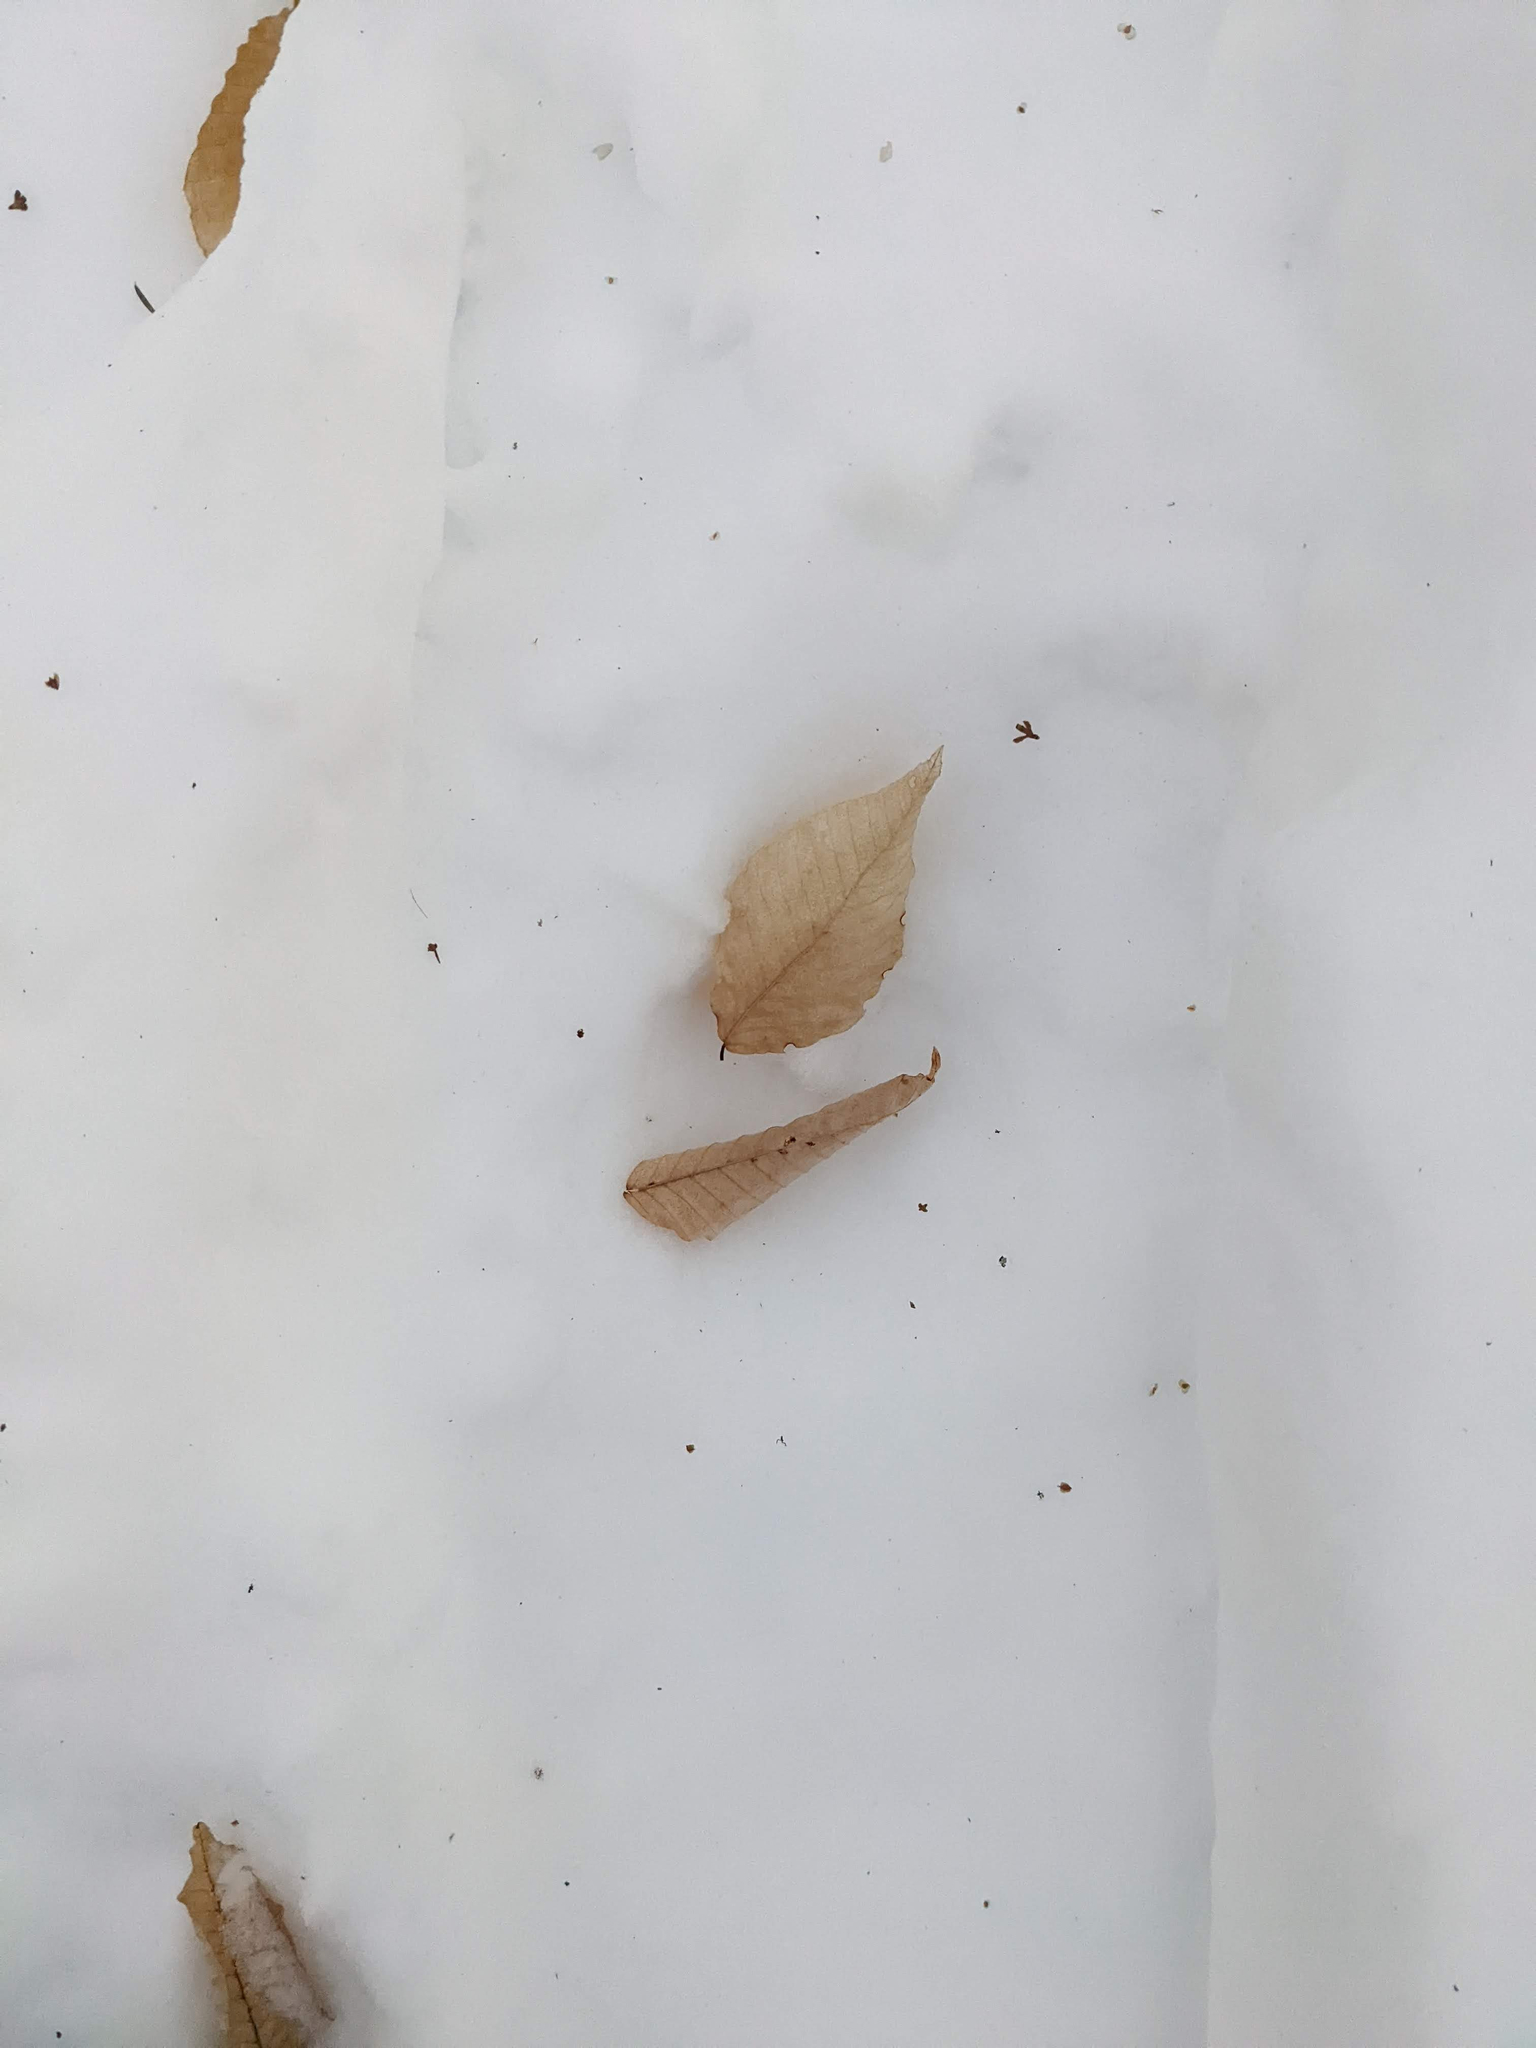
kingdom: Plantae
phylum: Tracheophyta
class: Magnoliopsida
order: Fagales
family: Fagaceae
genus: Fagus
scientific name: Fagus grandifolia
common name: American beech
